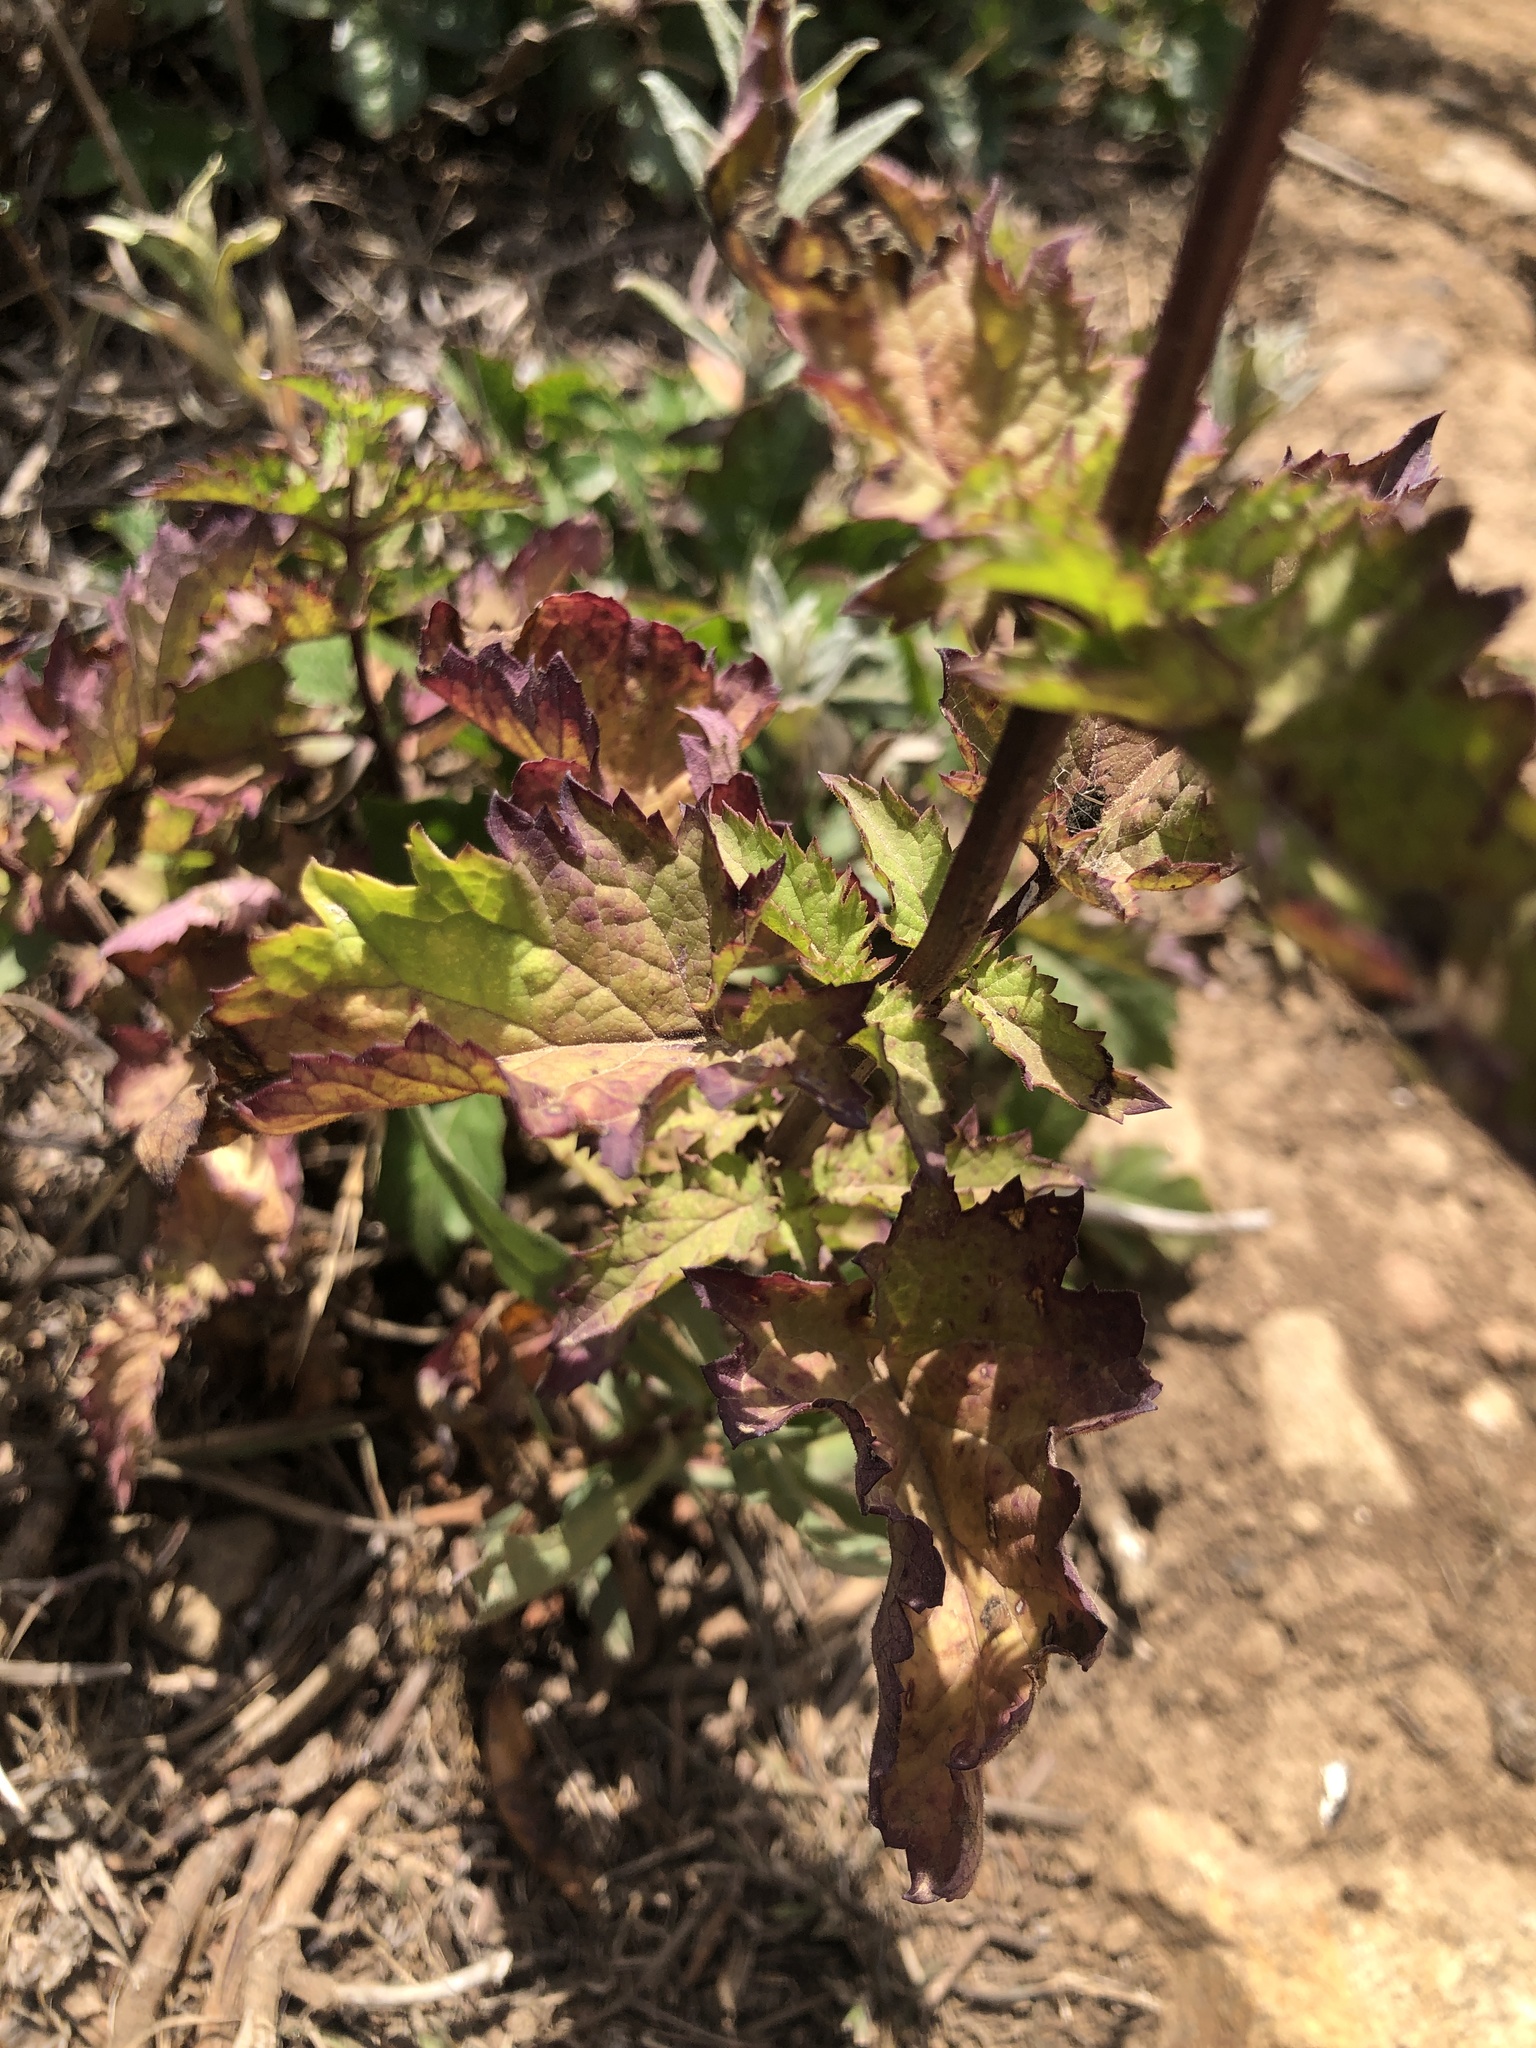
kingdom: Plantae
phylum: Tracheophyta
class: Magnoliopsida
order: Lamiales
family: Scrophulariaceae
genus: Scrophularia
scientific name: Scrophularia californica
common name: California figwort
